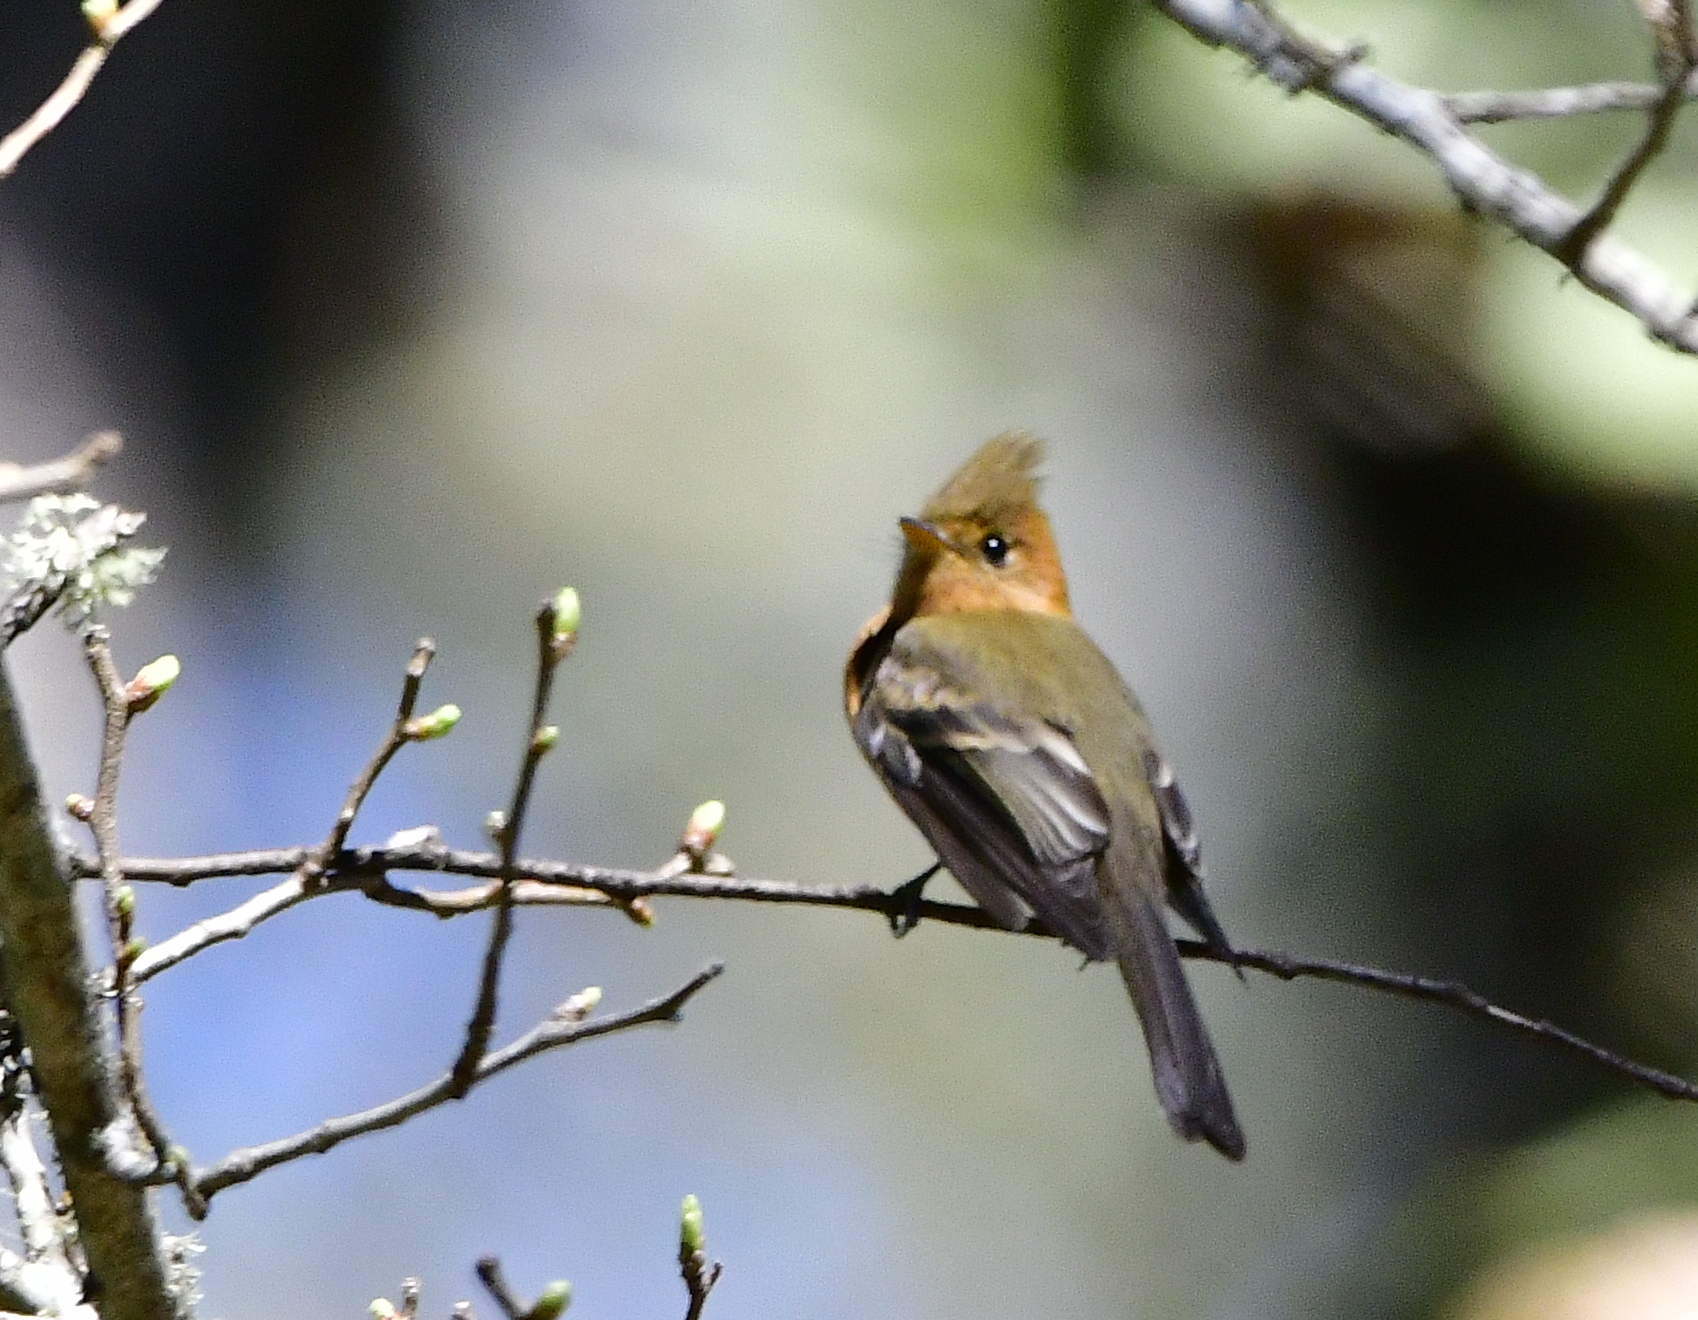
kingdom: Animalia
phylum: Chordata
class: Aves
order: Passeriformes
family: Tyrannidae
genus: Mitrephanes
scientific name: Mitrephanes phaeocercus
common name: Northern tufted flycatcher
